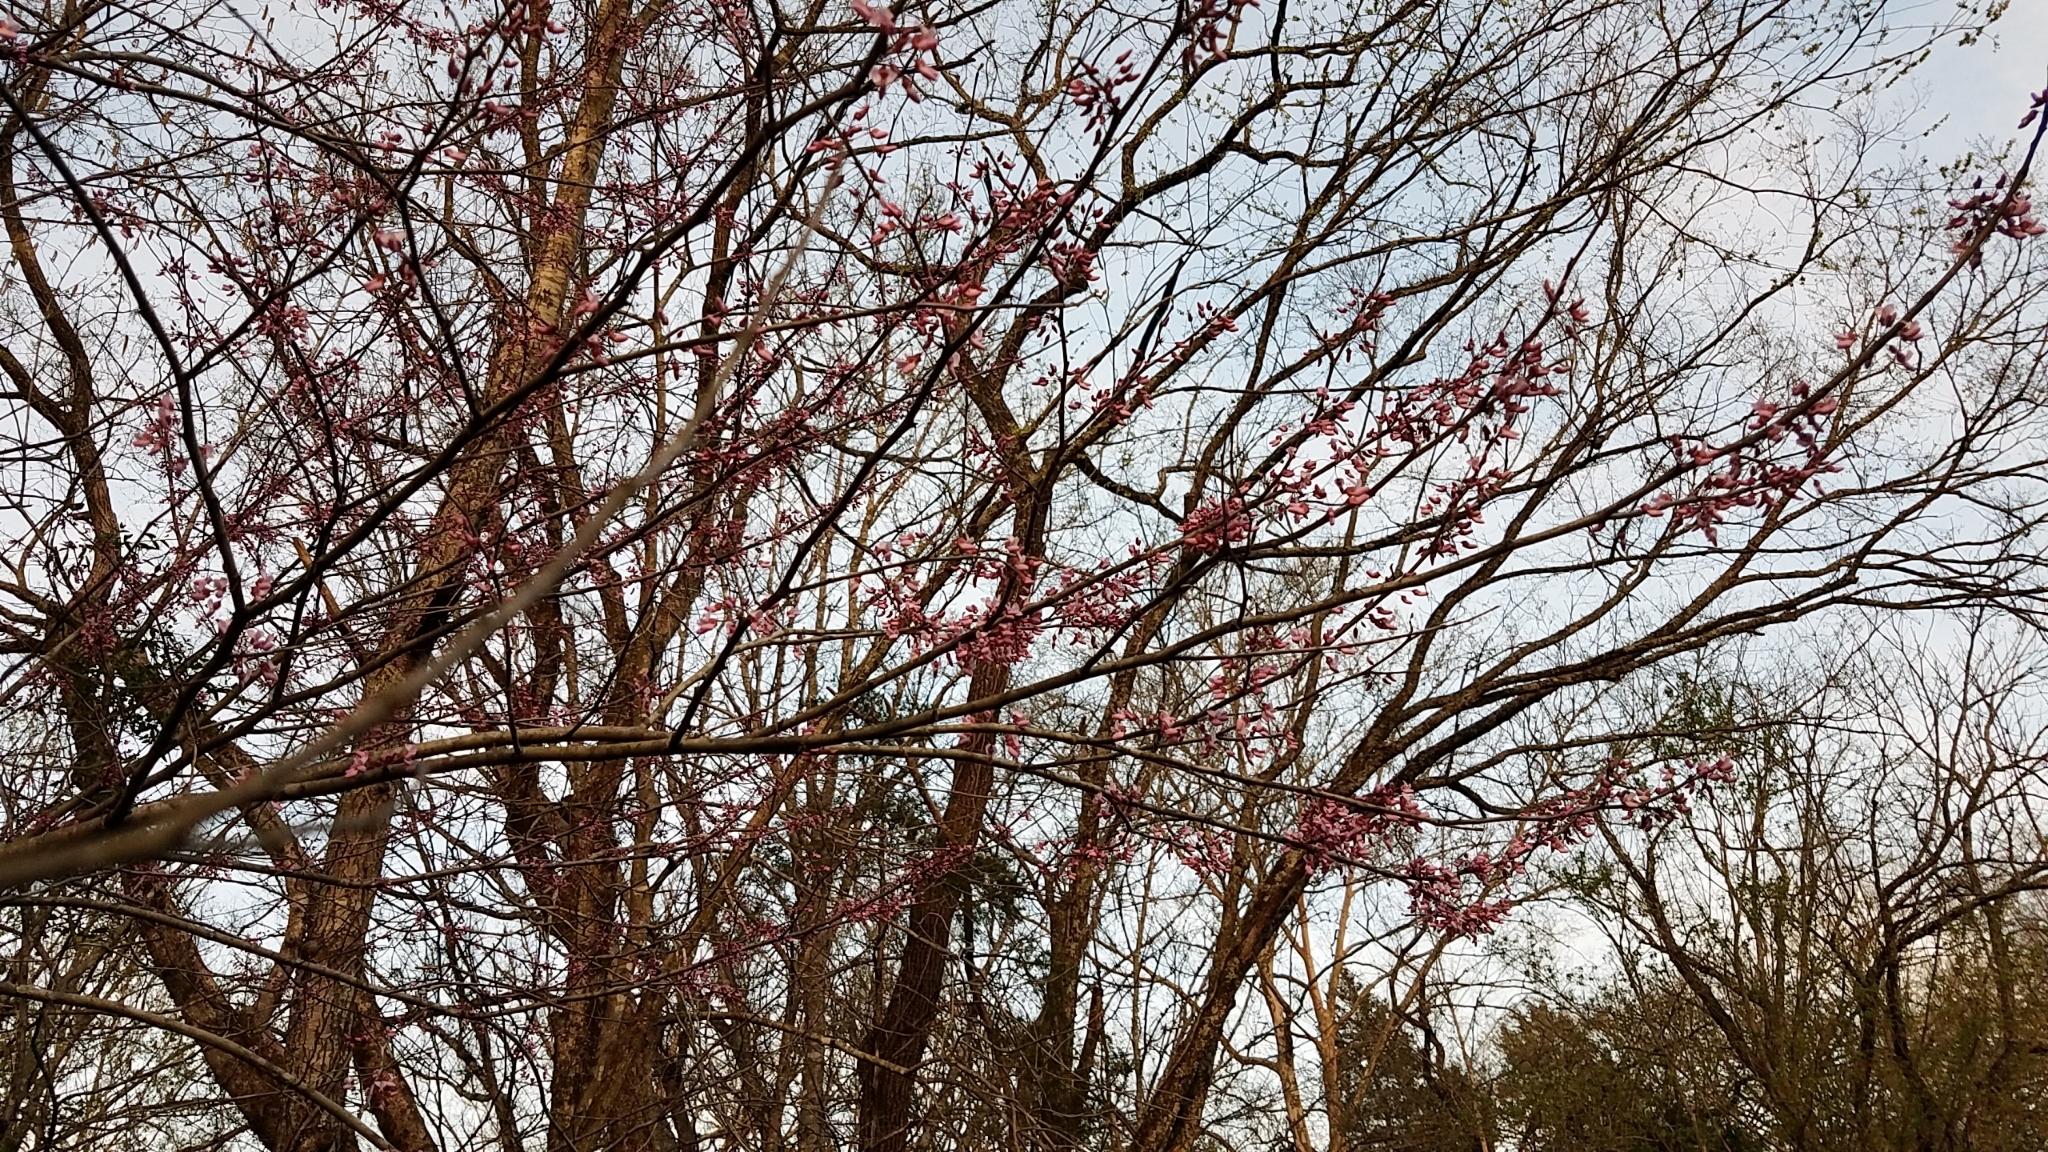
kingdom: Plantae
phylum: Tracheophyta
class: Magnoliopsida
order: Fabales
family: Fabaceae
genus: Cercis
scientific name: Cercis canadensis
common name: Eastern redbud
